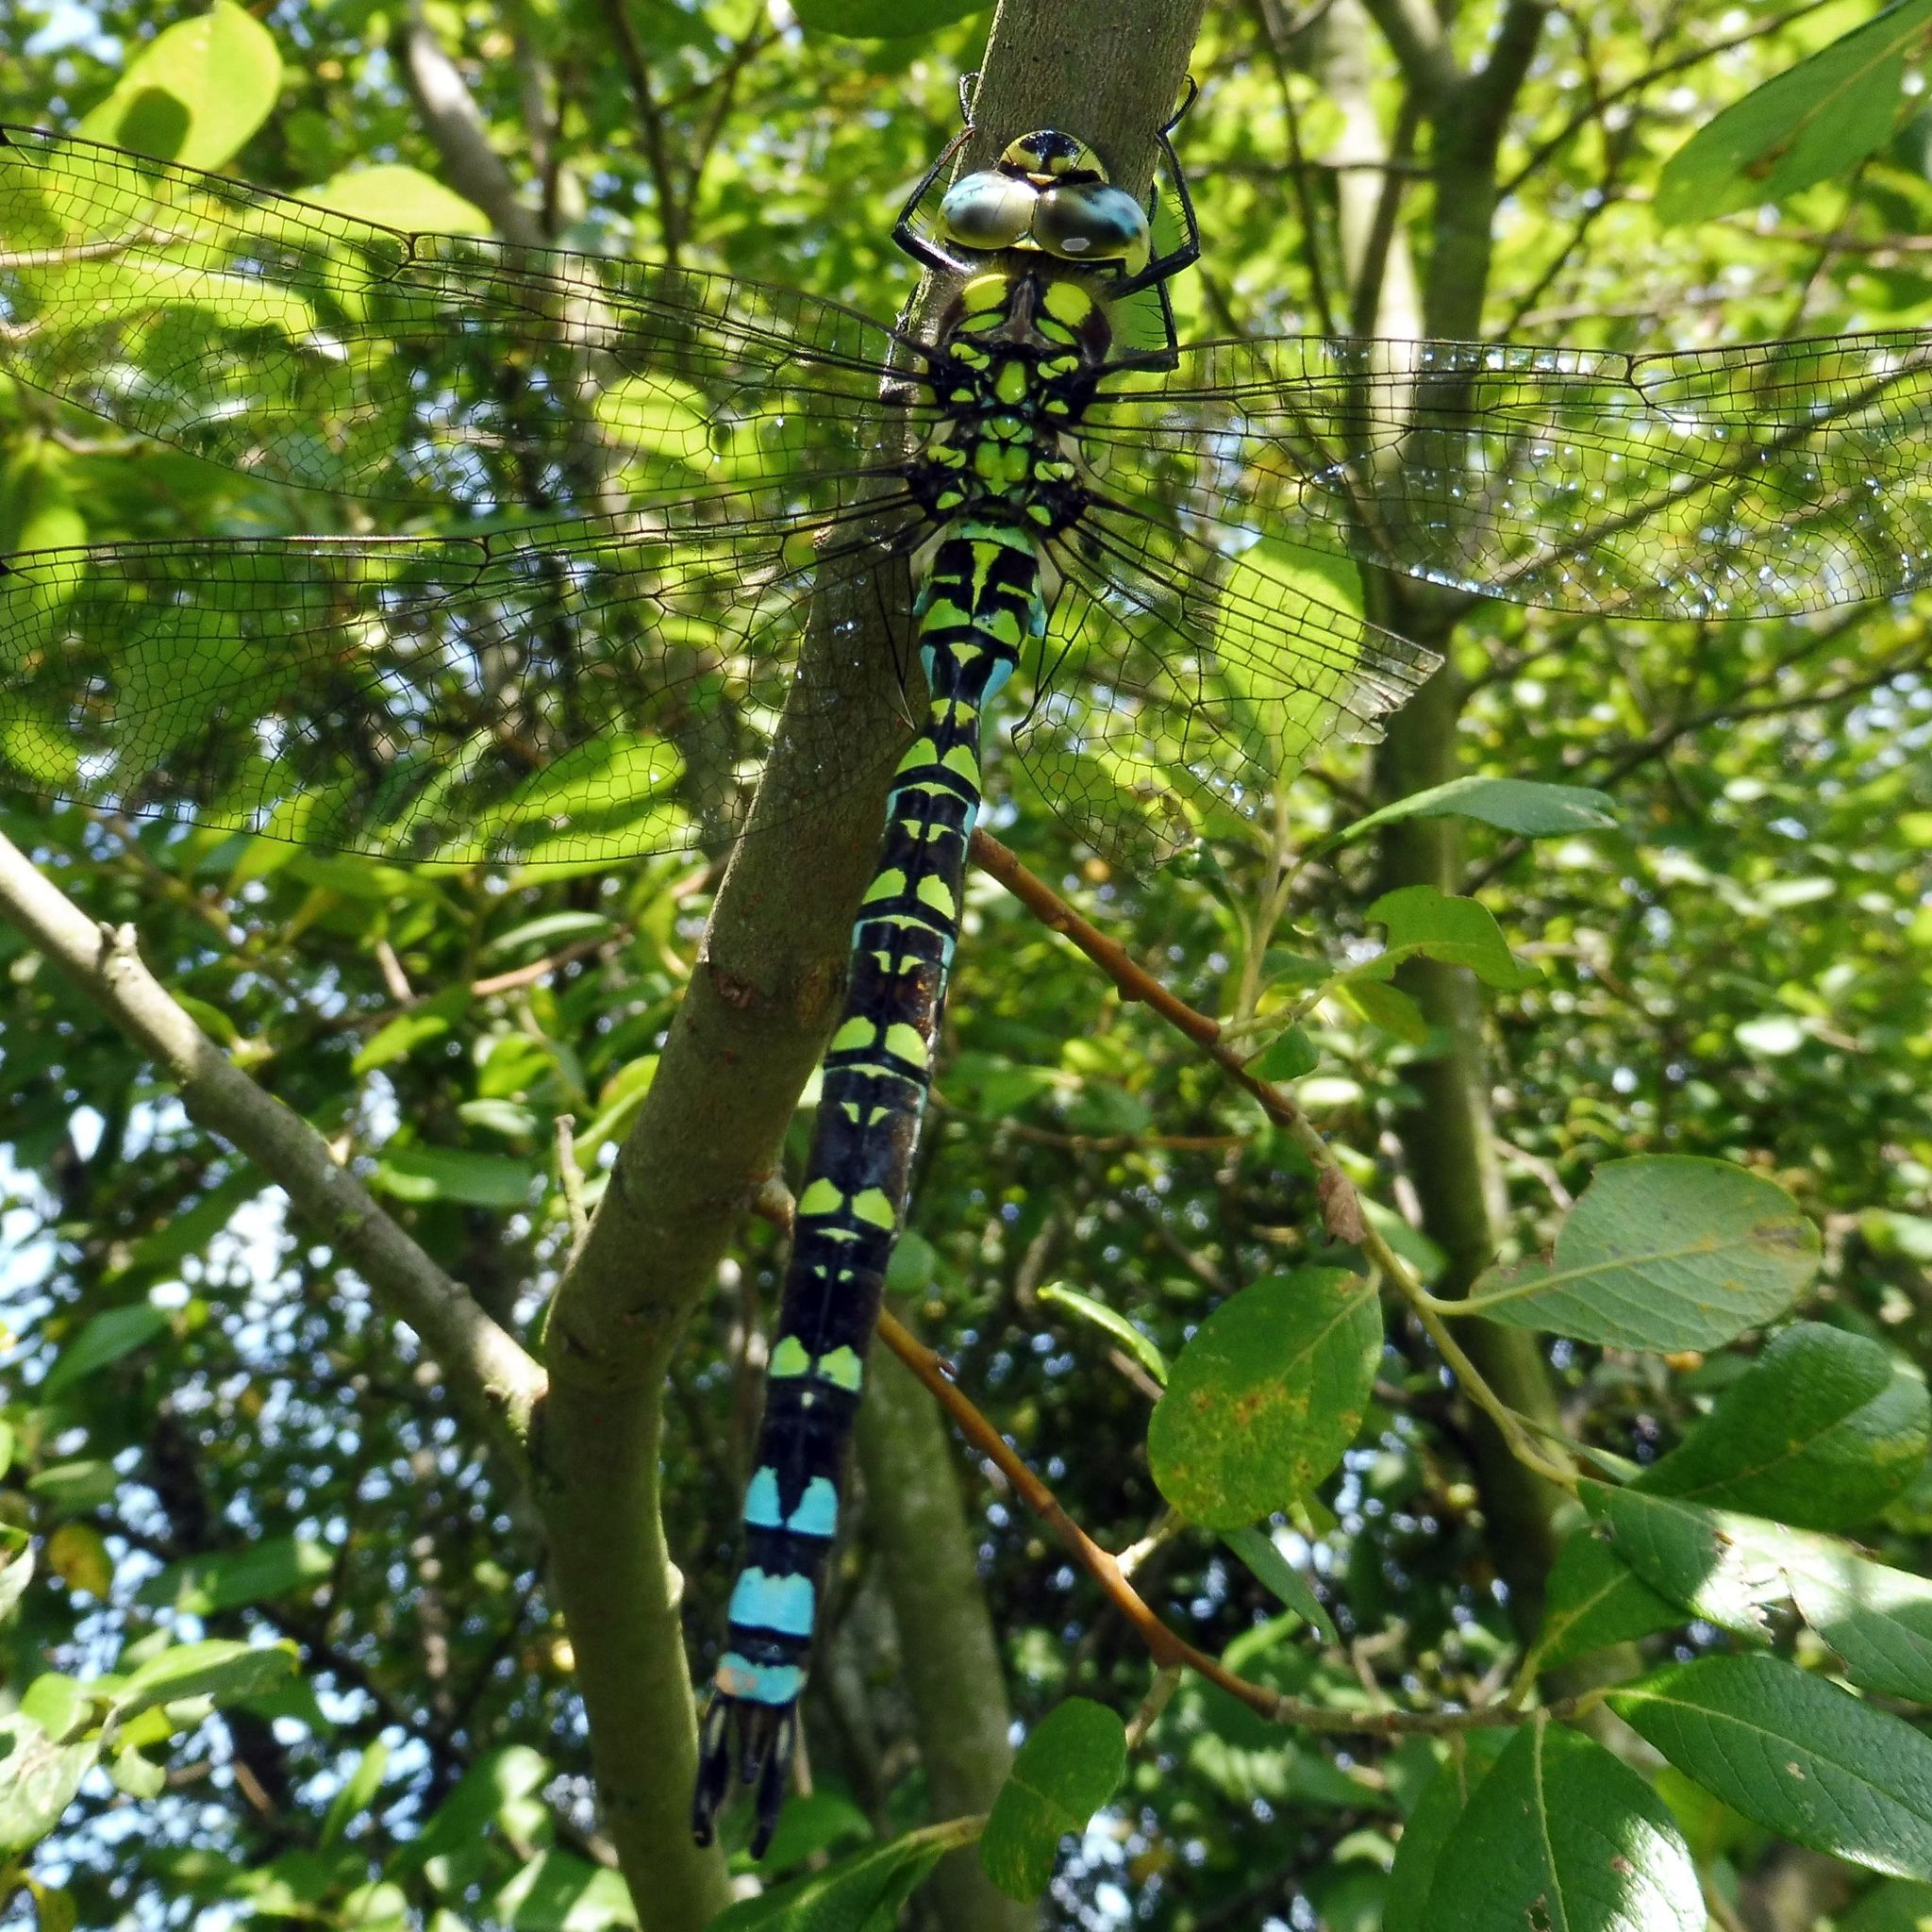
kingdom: Animalia
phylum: Arthropoda
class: Insecta
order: Odonata
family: Aeshnidae
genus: Aeshna
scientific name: Aeshna cyanea
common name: Southern hawker
